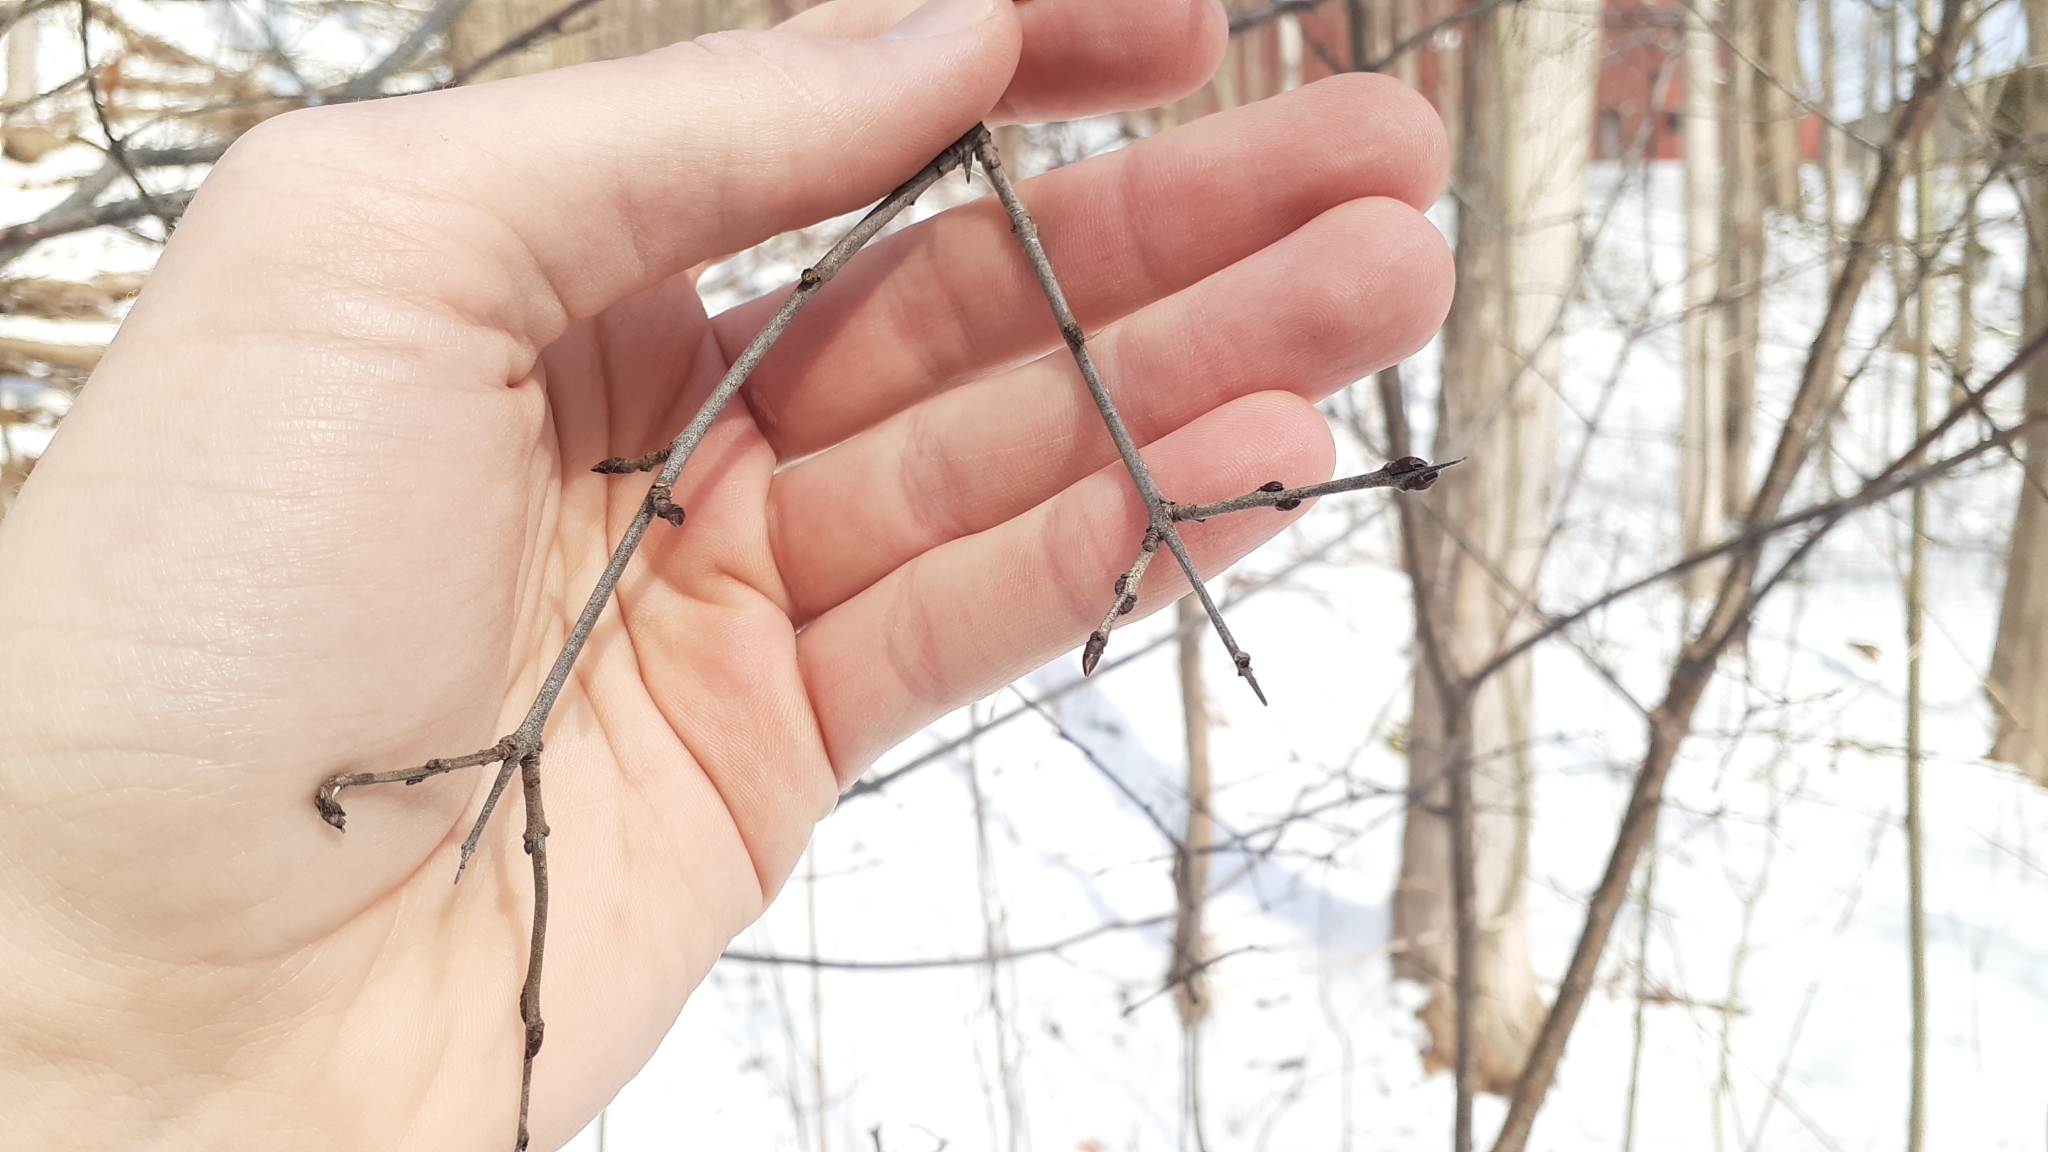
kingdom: Plantae
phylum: Tracheophyta
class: Magnoliopsida
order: Rosales
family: Rhamnaceae
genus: Rhamnus
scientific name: Rhamnus cathartica
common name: Common buckthorn
